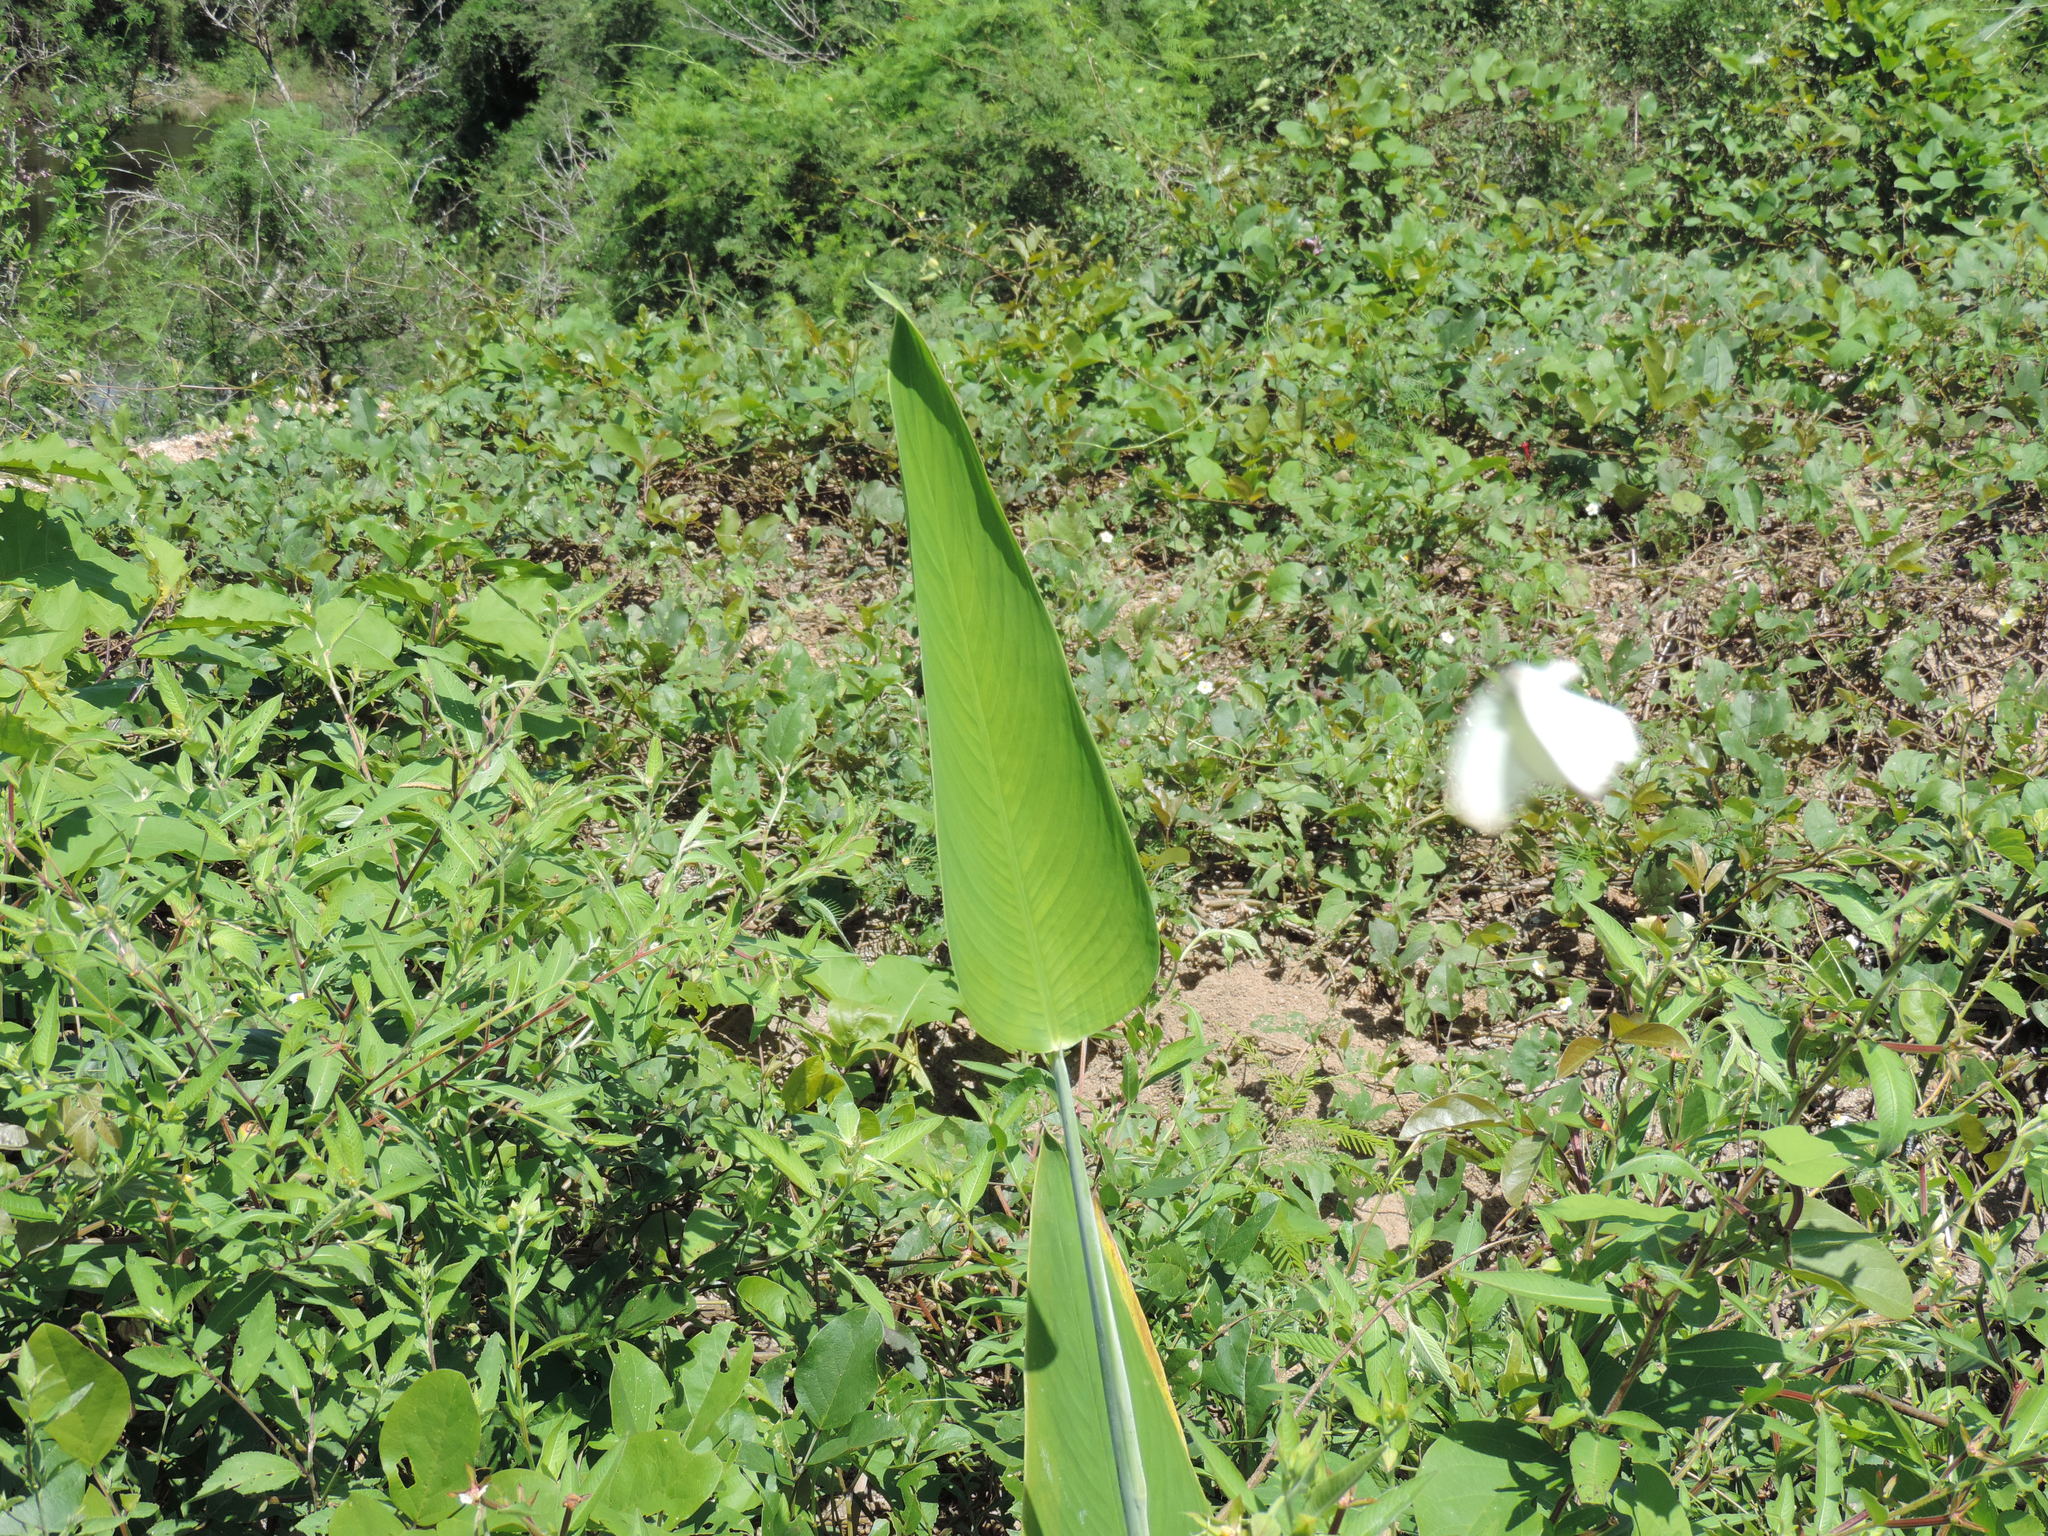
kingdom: Plantae
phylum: Tracheophyta
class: Liliopsida
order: Zingiberales
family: Marantaceae
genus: Thalia
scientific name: Thalia geniculata
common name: Arrowroot
